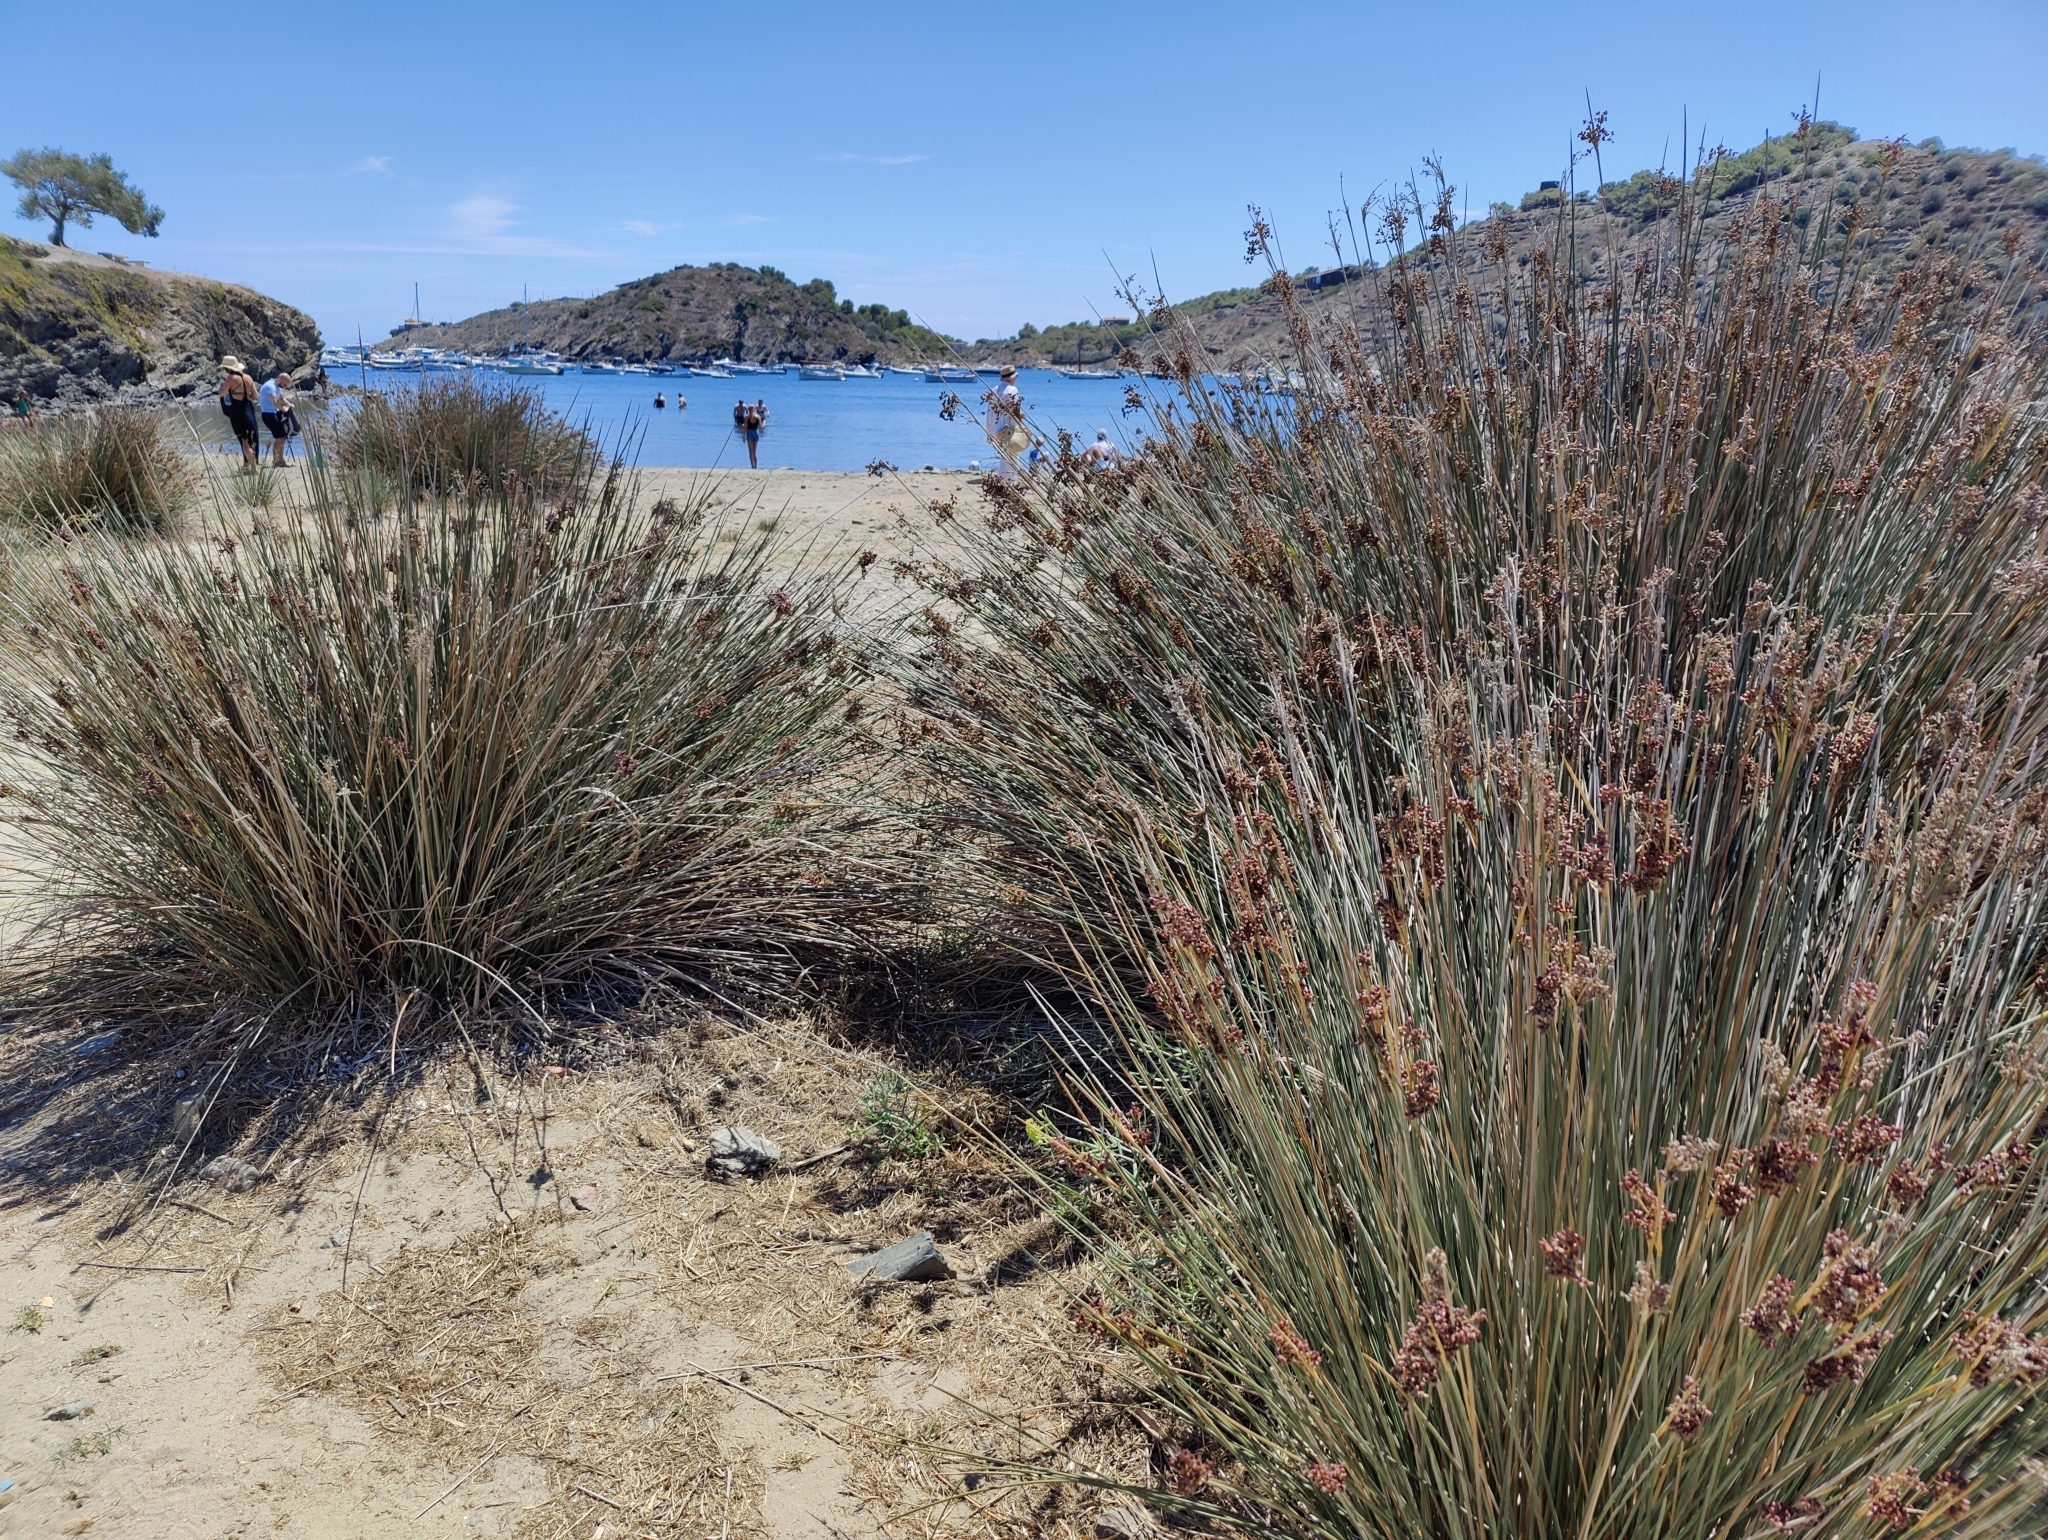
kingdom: Plantae
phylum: Tracheophyta
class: Liliopsida
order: Poales
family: Juncaceae
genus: Juncus
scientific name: Juncus acutus
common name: Sharp rush
